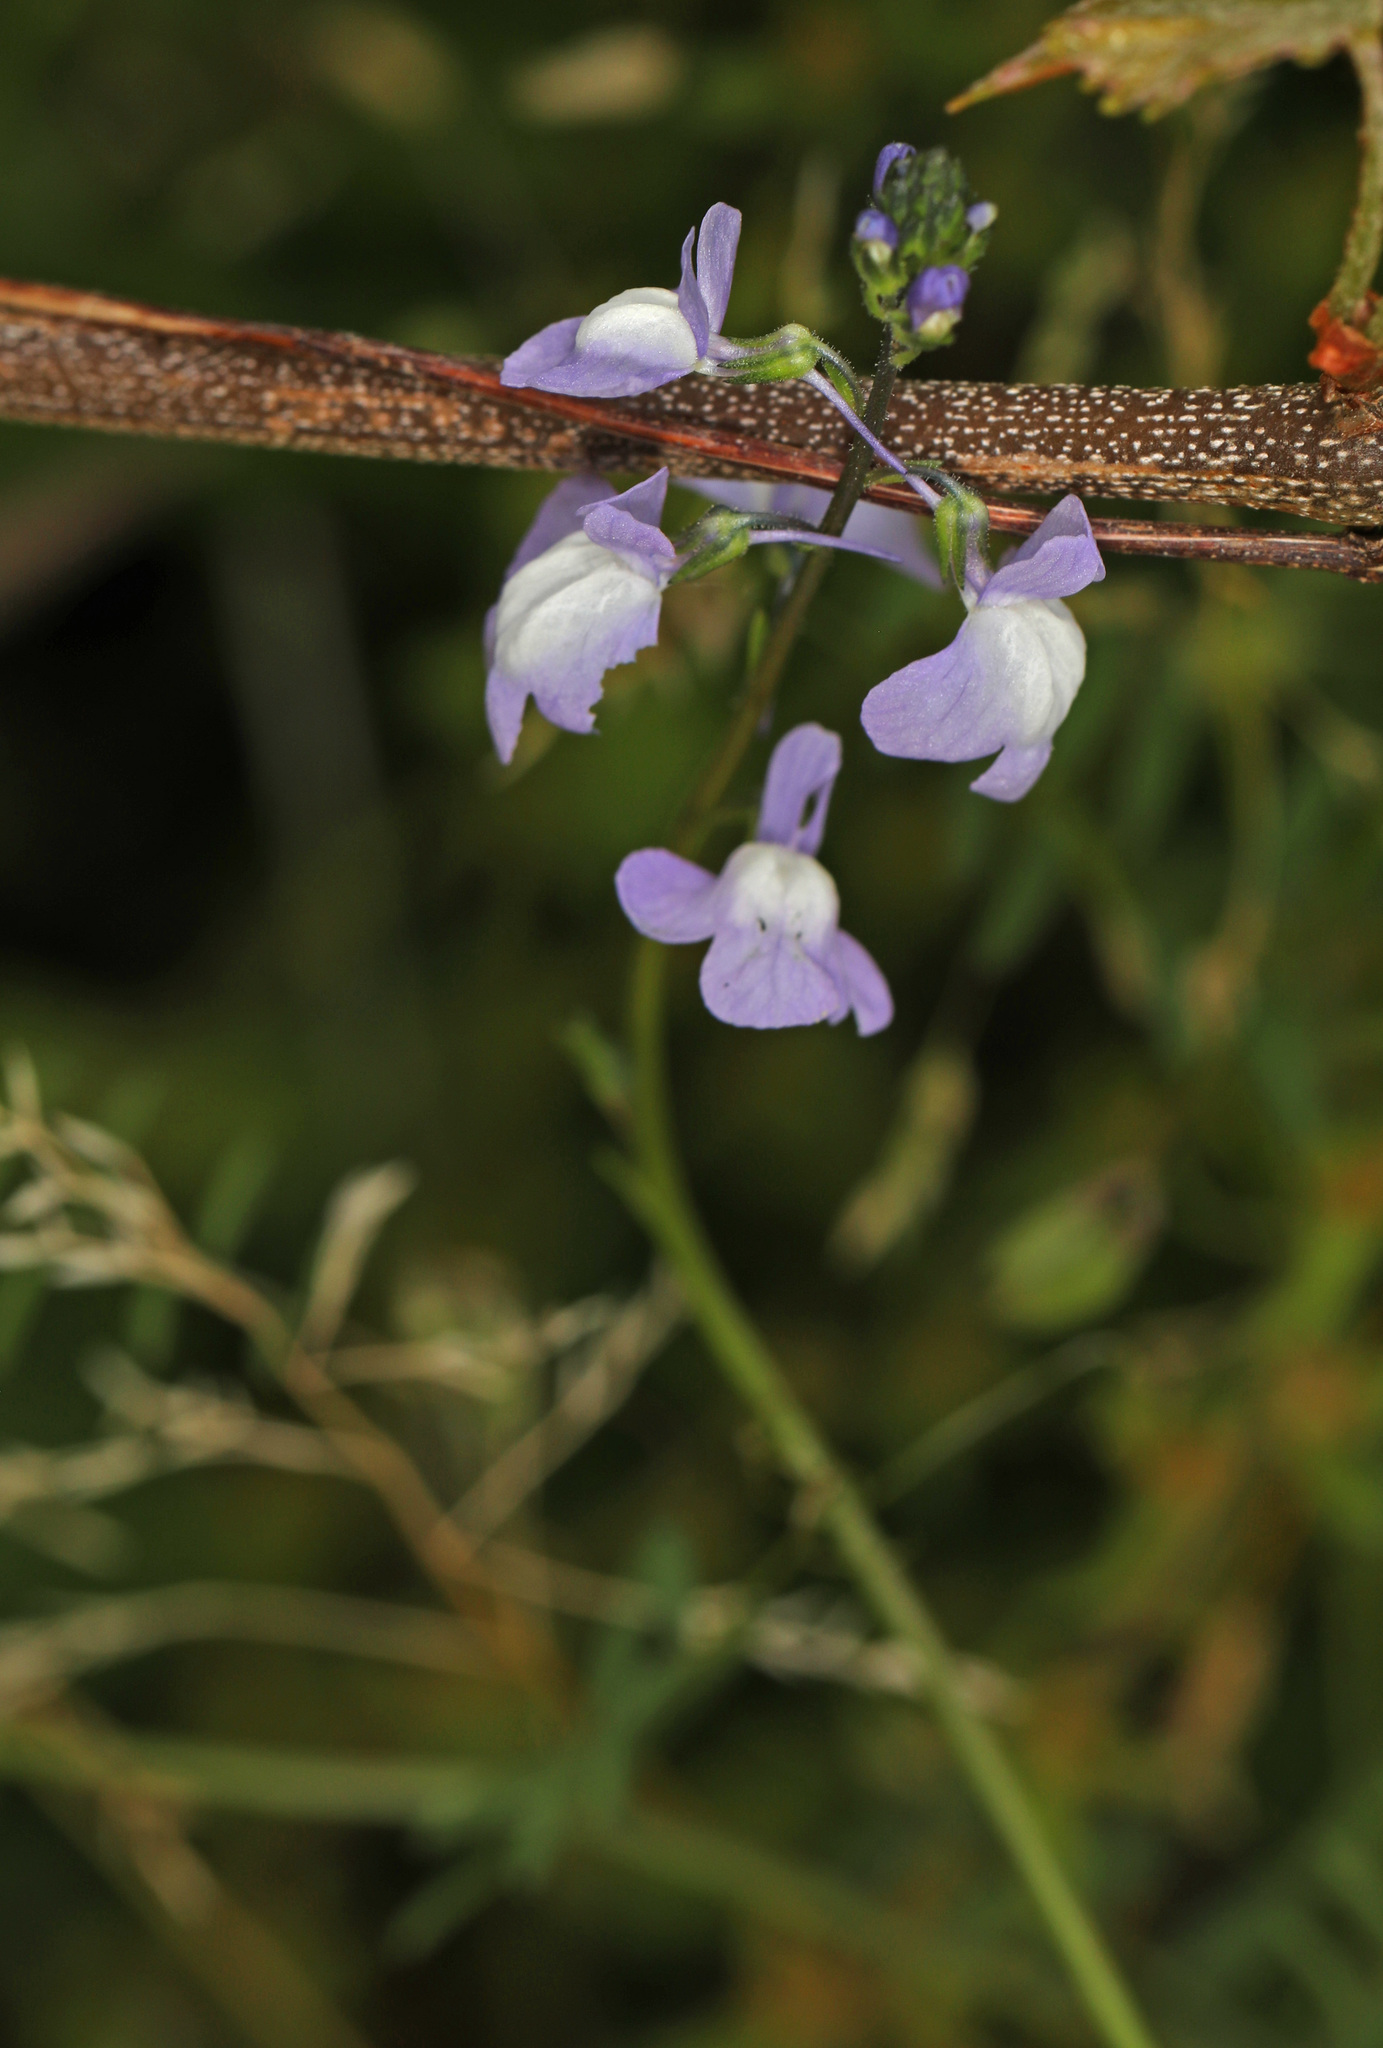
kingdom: Plantae
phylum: Tracheophyta
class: Magnoliopsida
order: Lamiales
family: Plantaginaceae
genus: Nuttallanthus
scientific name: Nuttallanthus canadensis
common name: Blue toadflax
